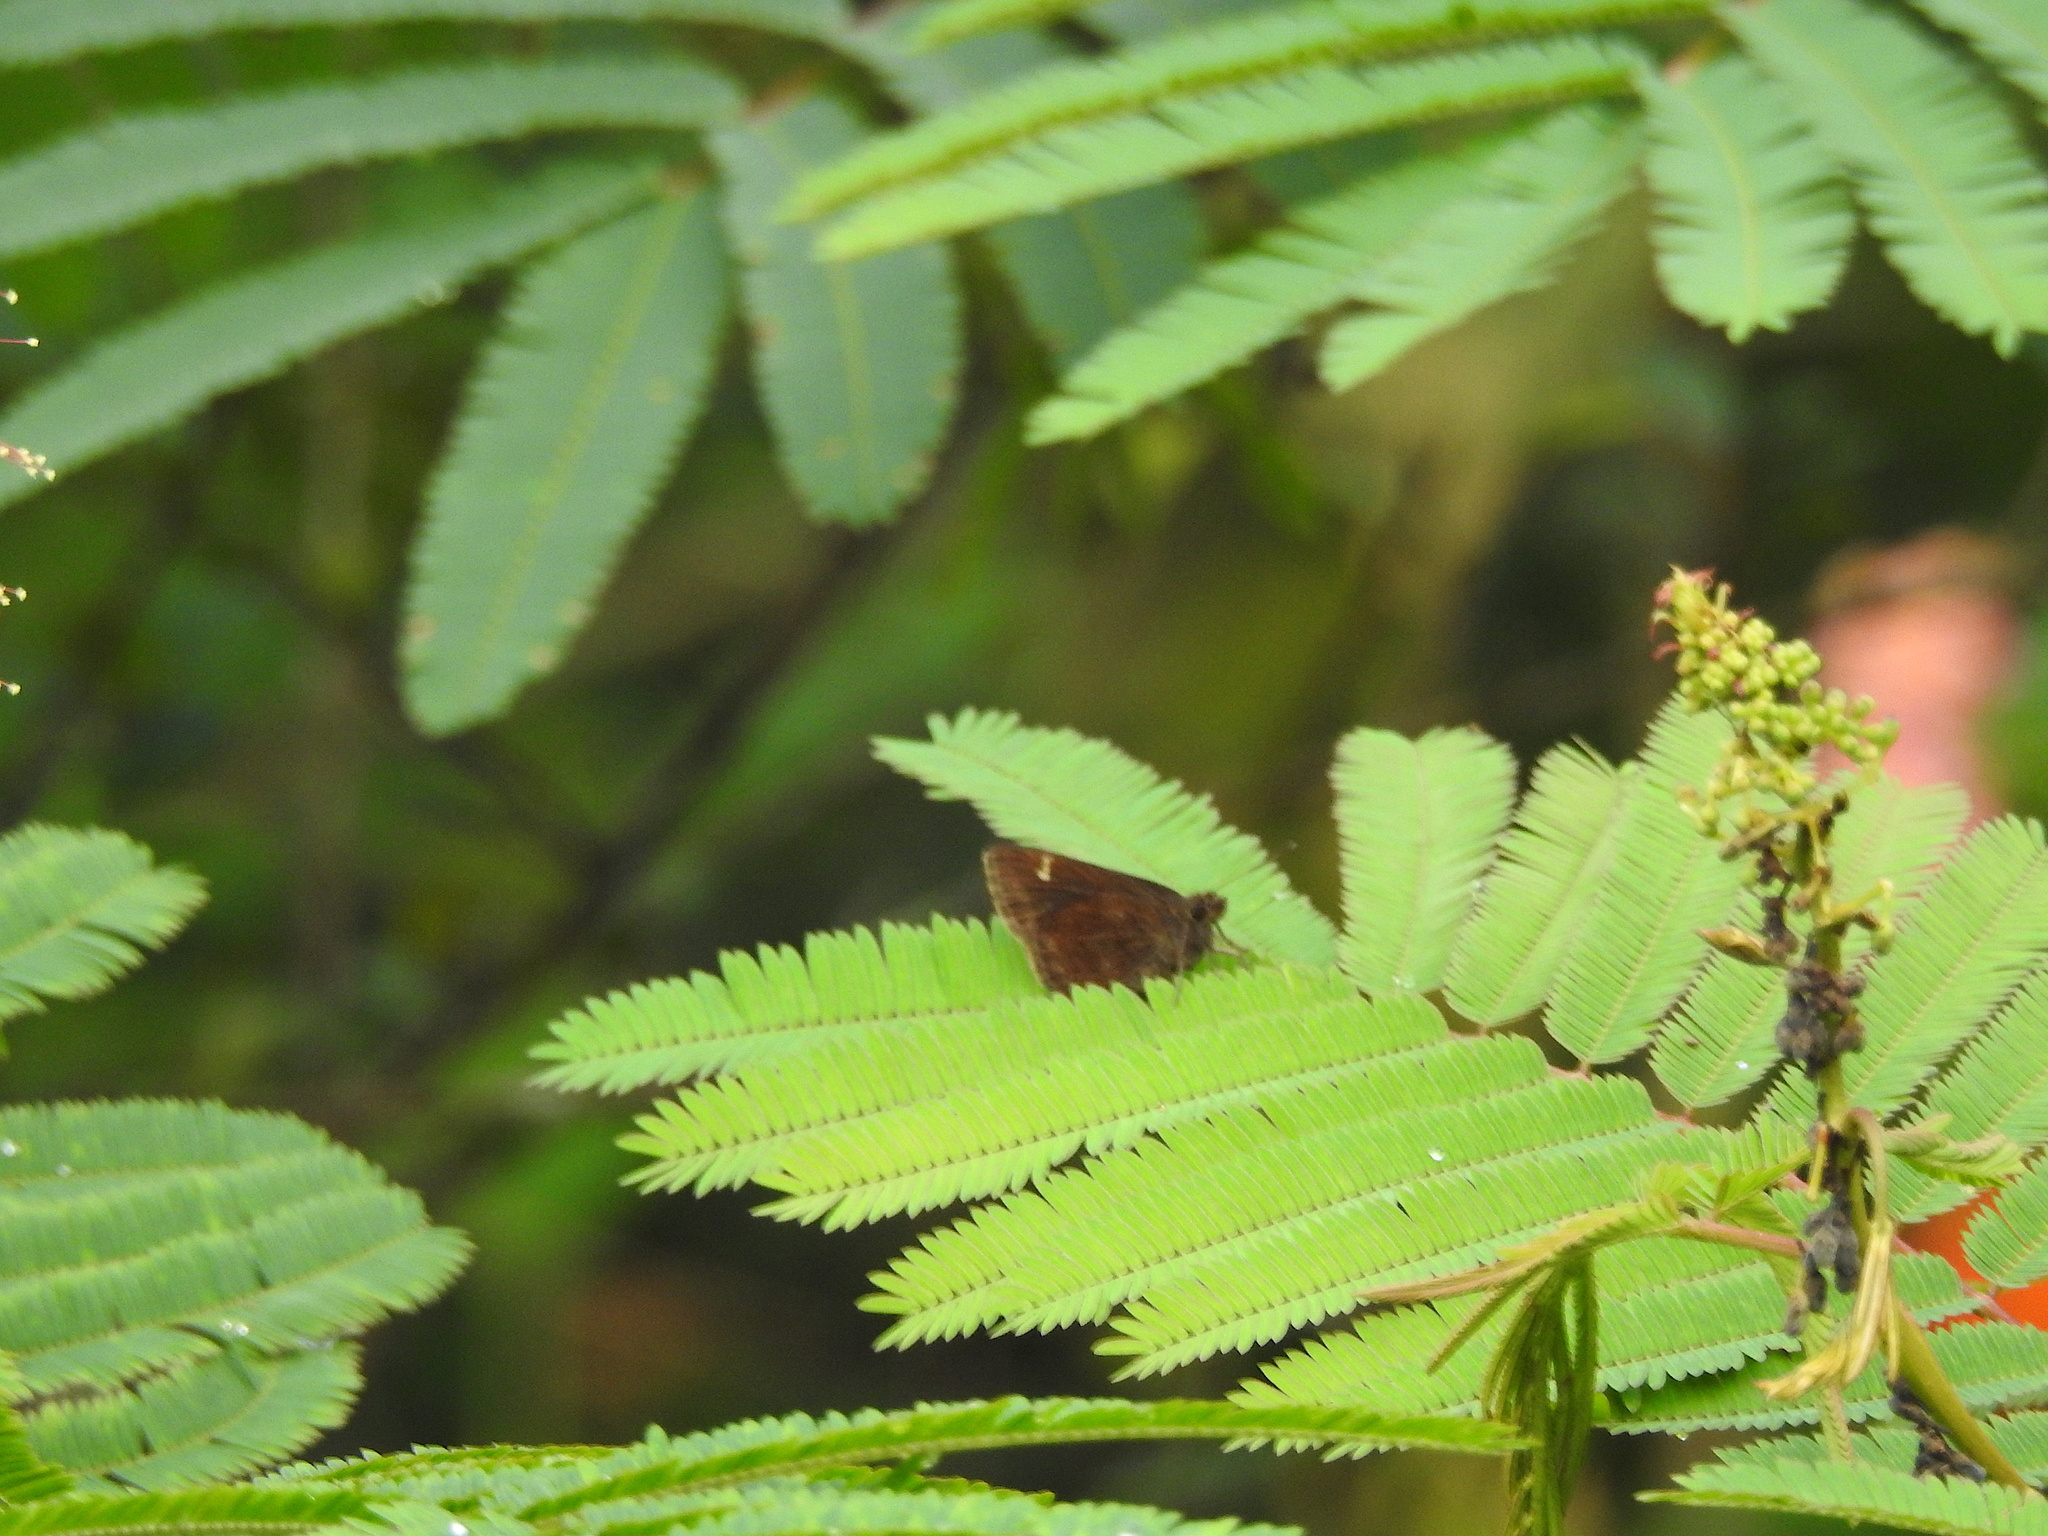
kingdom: Animalia
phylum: Arthropoda
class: Insecta
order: Lepidoptera
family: Hesperiidae
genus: Arnetta
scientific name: Arnetta mercara
